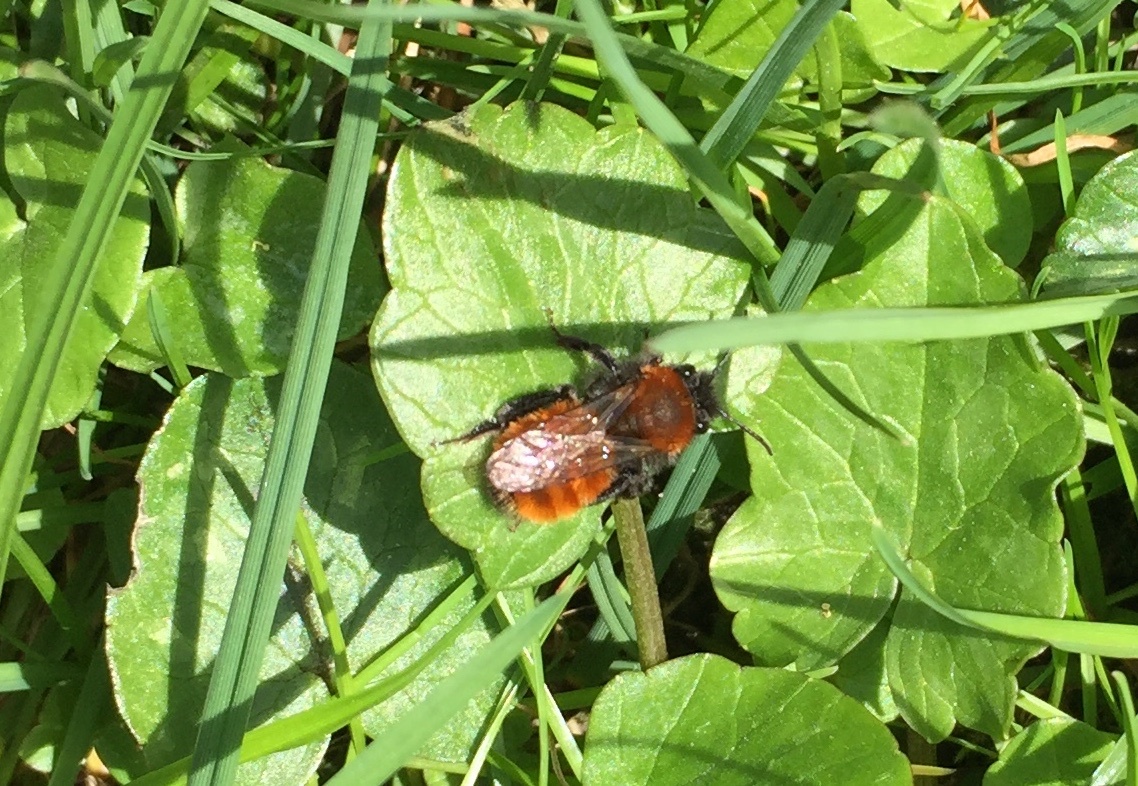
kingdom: Animalia
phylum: Arthropoda
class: Insecta
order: Hymenoptera
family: Andrenidae
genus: Andrena
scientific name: Andrena fulva
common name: Tawny mining bee
